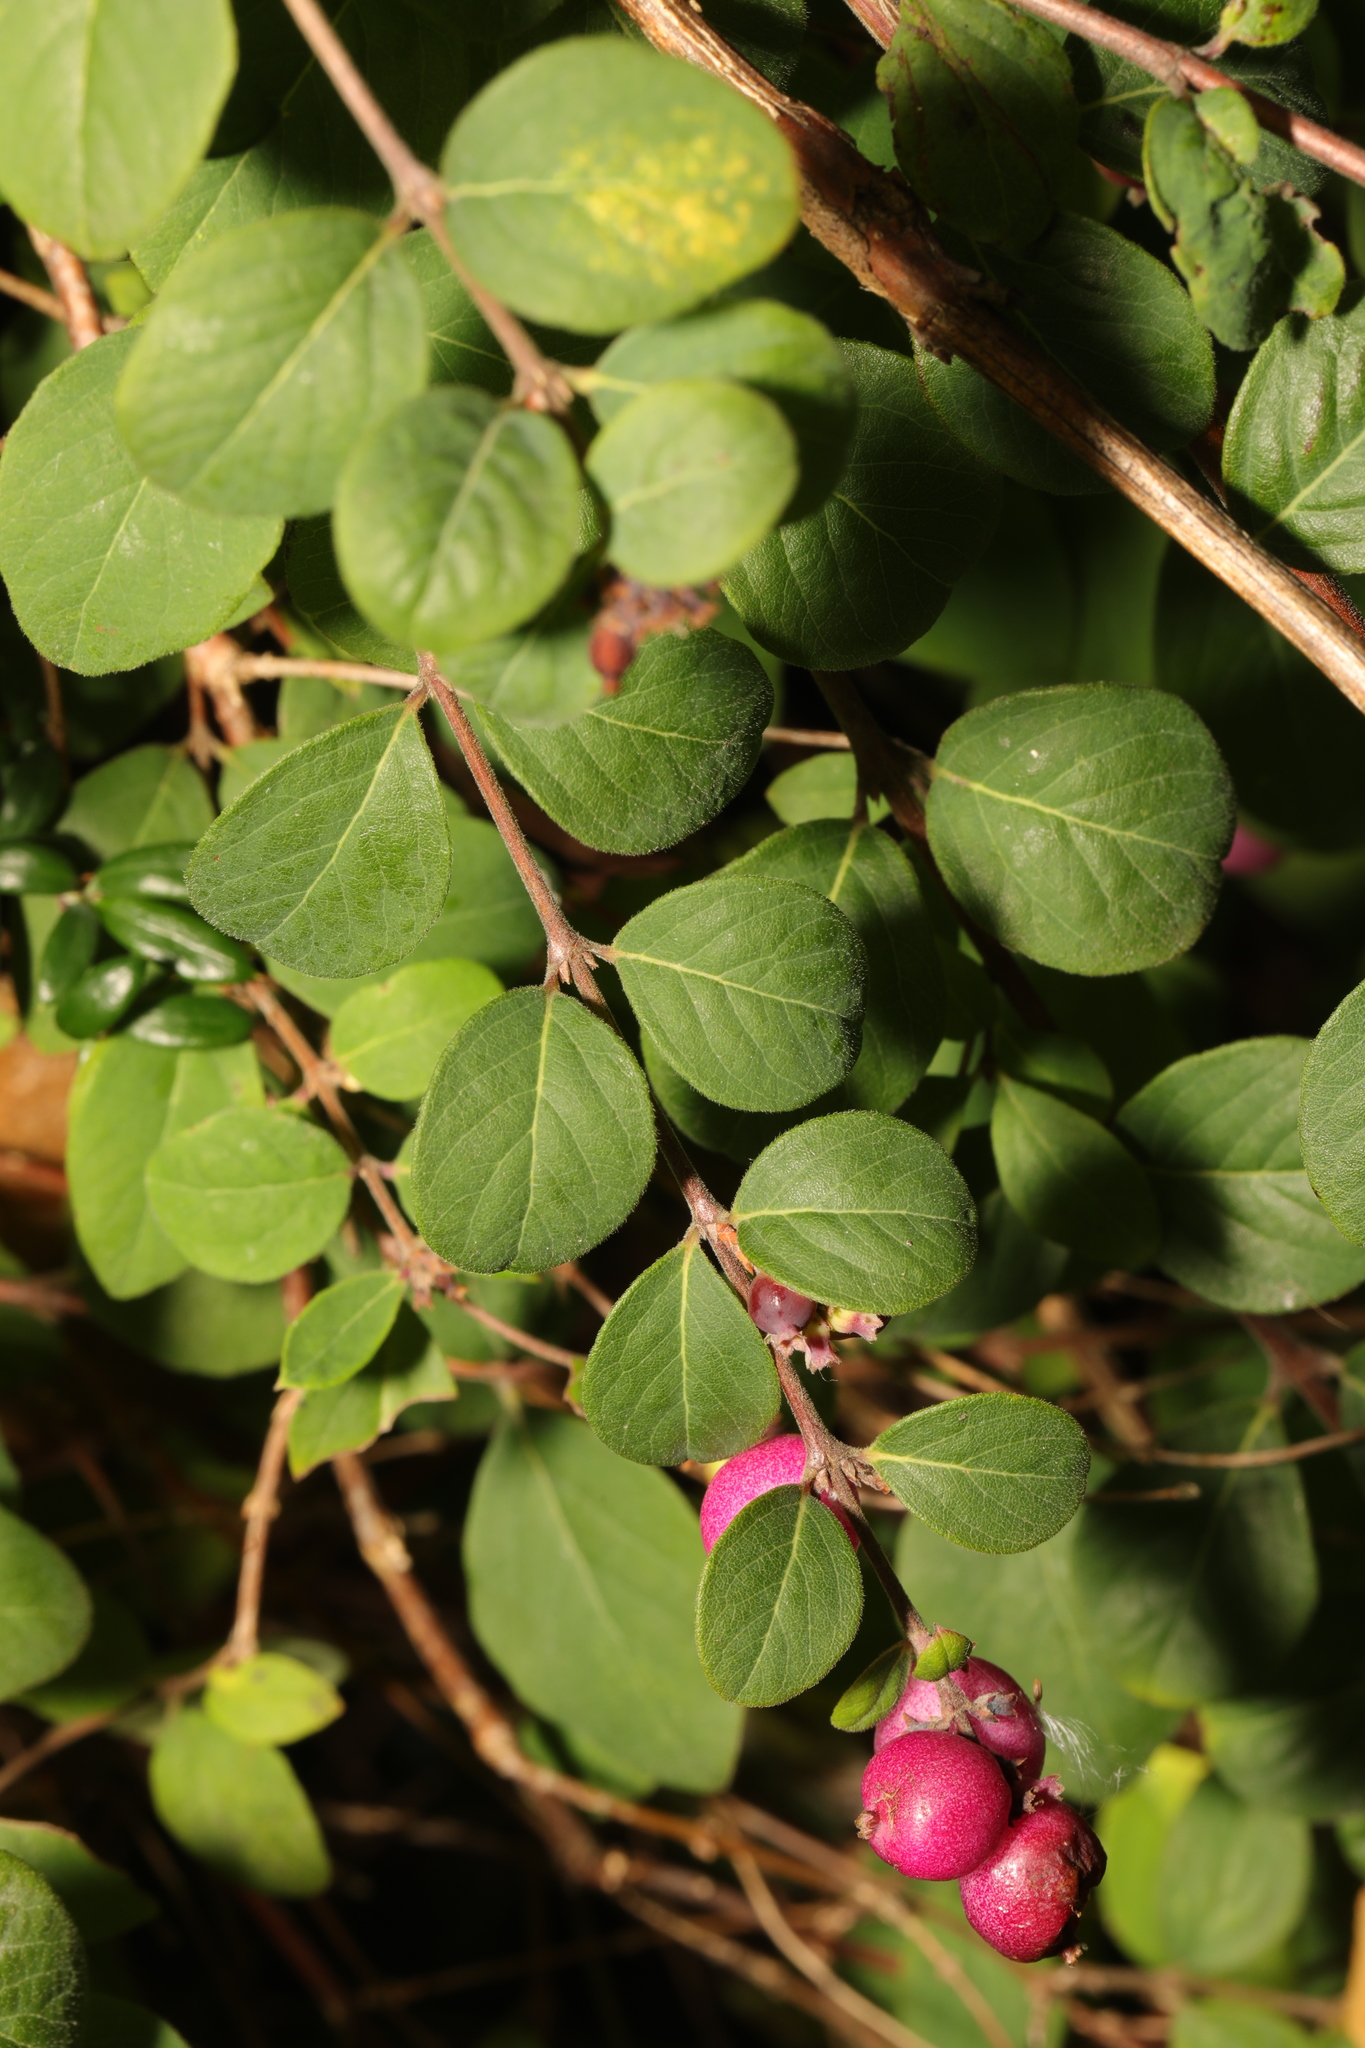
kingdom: Plantae
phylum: Tracheophyta
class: Magnoliopsida
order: Dipsacales
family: Caprifoliaceae
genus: Symphoricarpos
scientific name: Symphoricarpos chenaultii
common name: Hybrid coralberry
